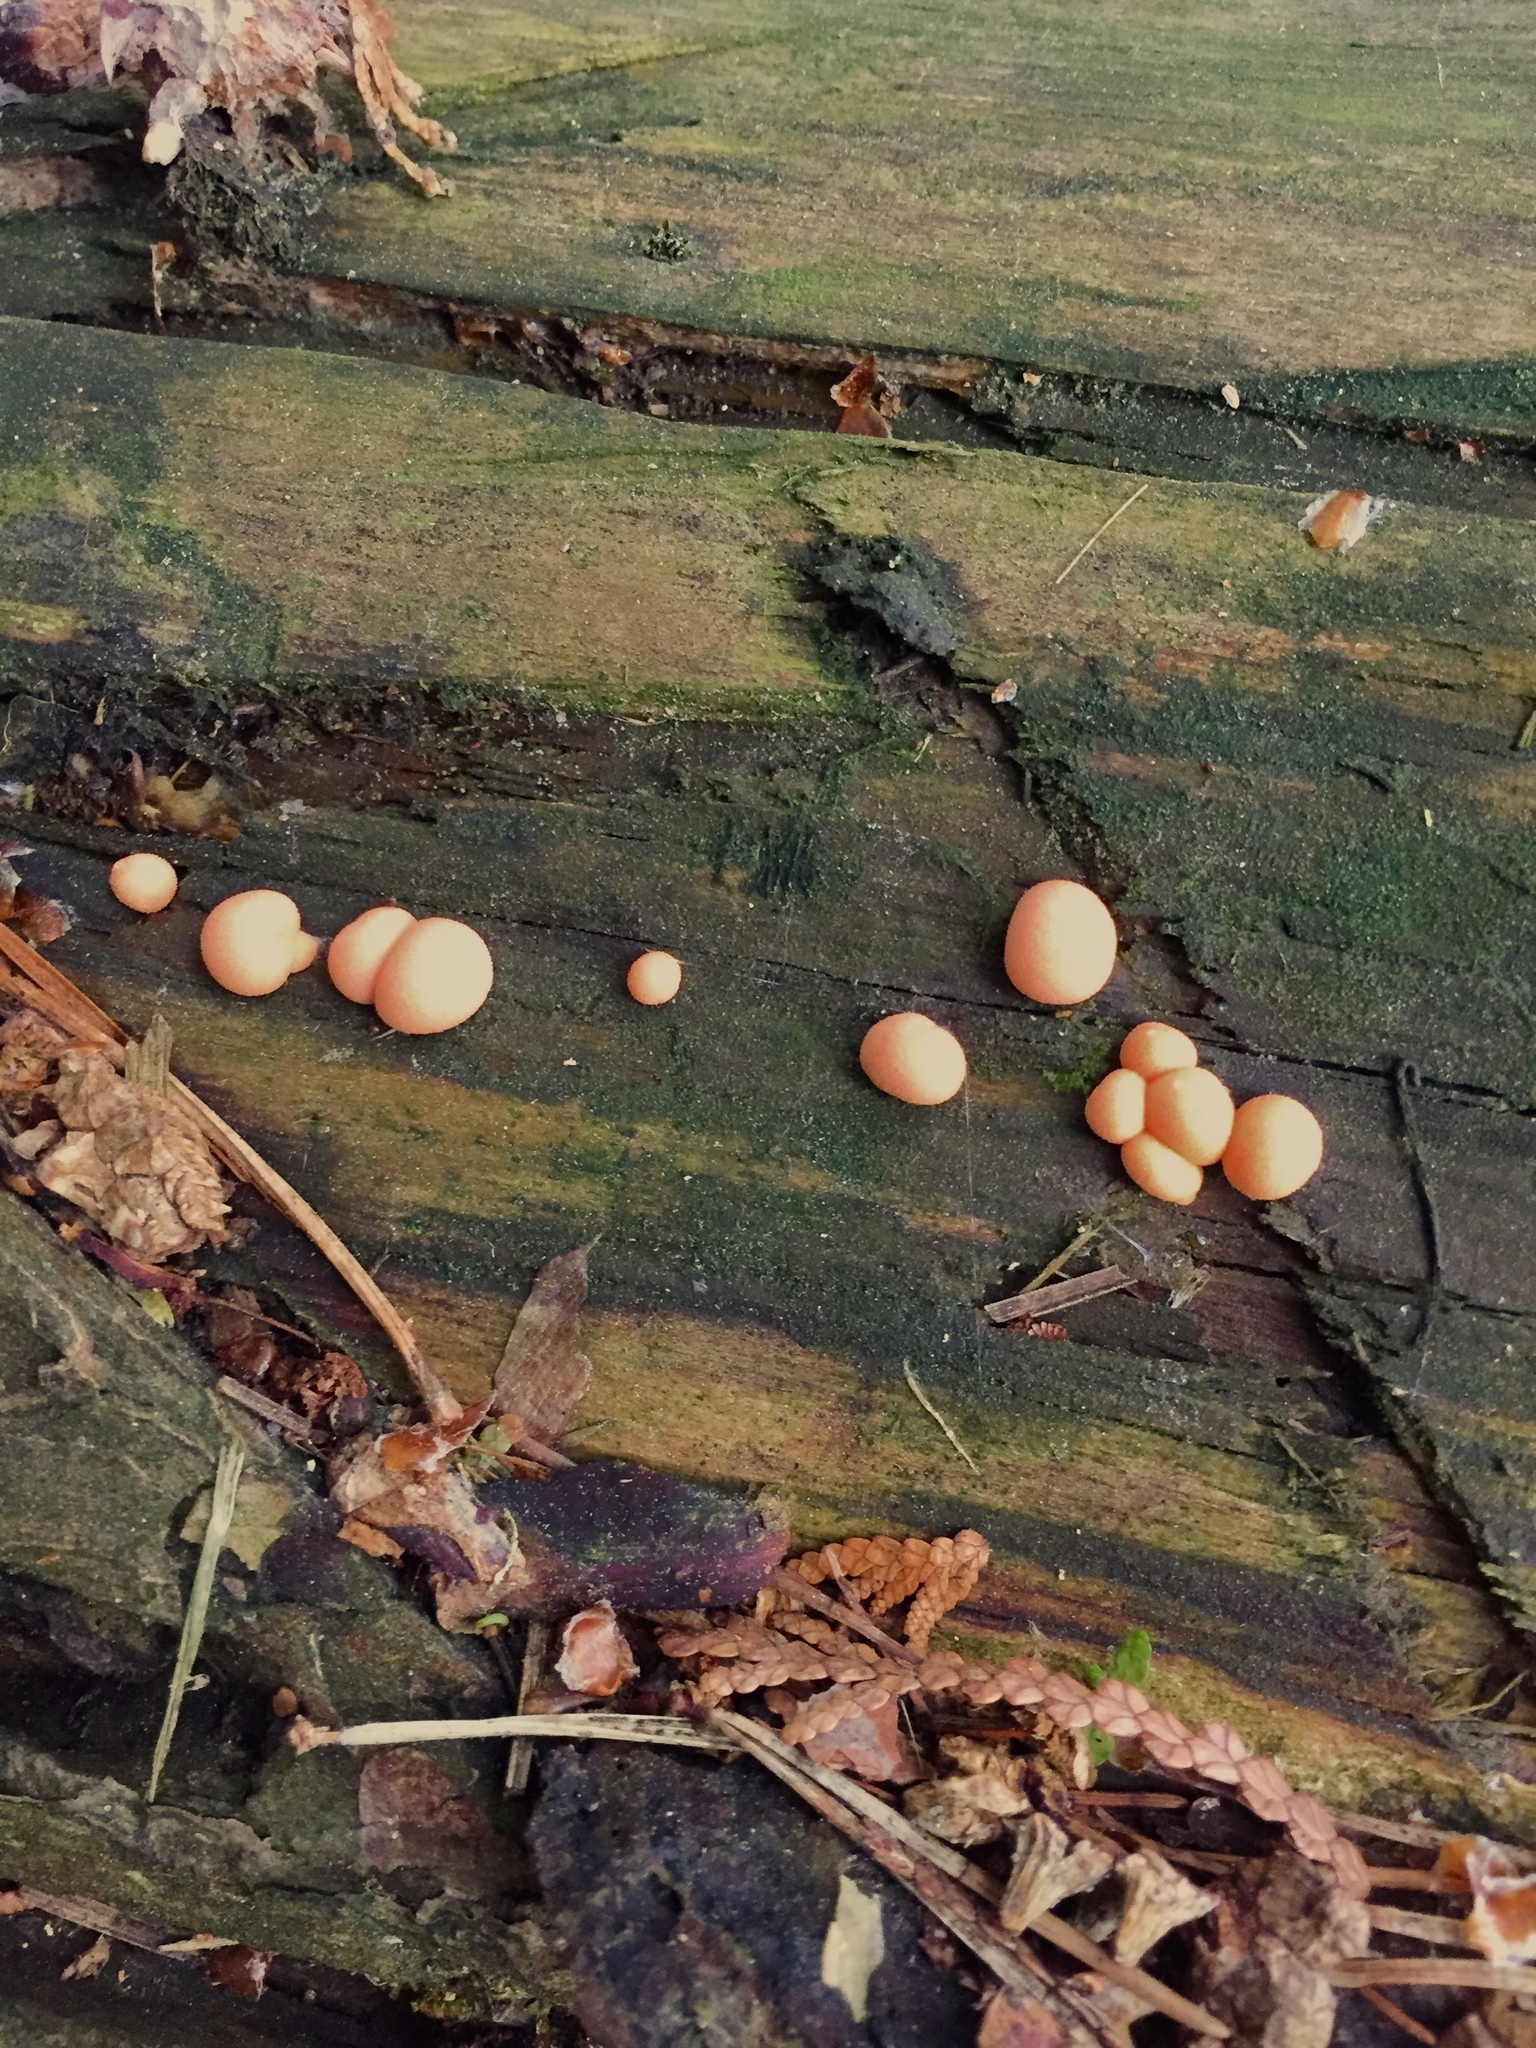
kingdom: Protozoa
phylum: Mycetozoa
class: Myxomycetes
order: Cribrariales
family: Tubiferaceae
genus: Lycogala
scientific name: Lycogala epidendrum
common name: Wolf's milk
